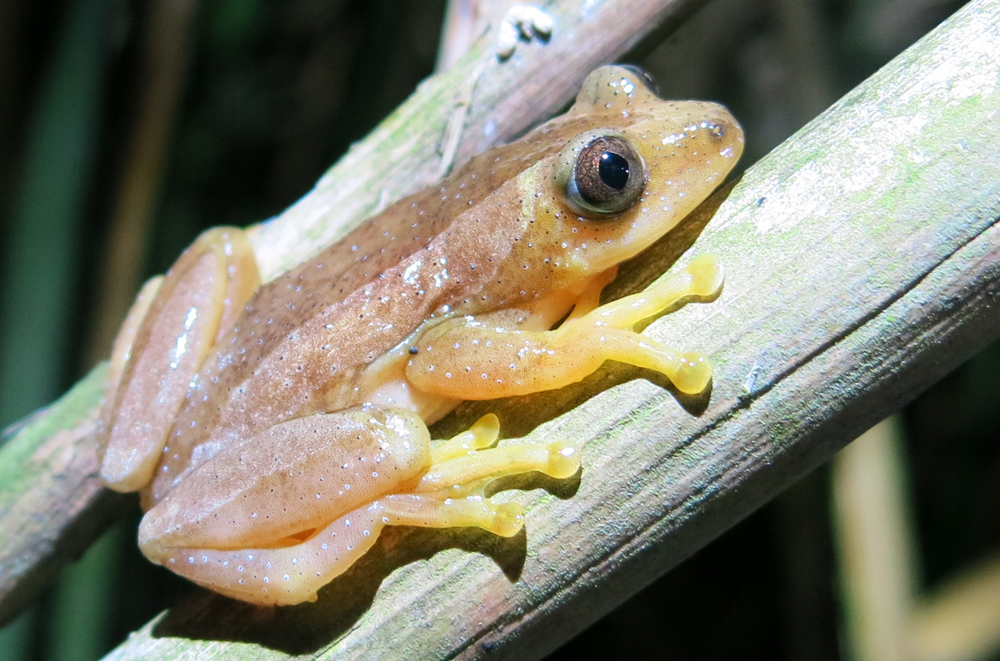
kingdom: Animalia
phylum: Chordata
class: Amphibia
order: Anura
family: Hyperoliidae
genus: Afrixalus
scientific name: Afrixalus fornasini
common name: Fornasini's spiny reed frog
